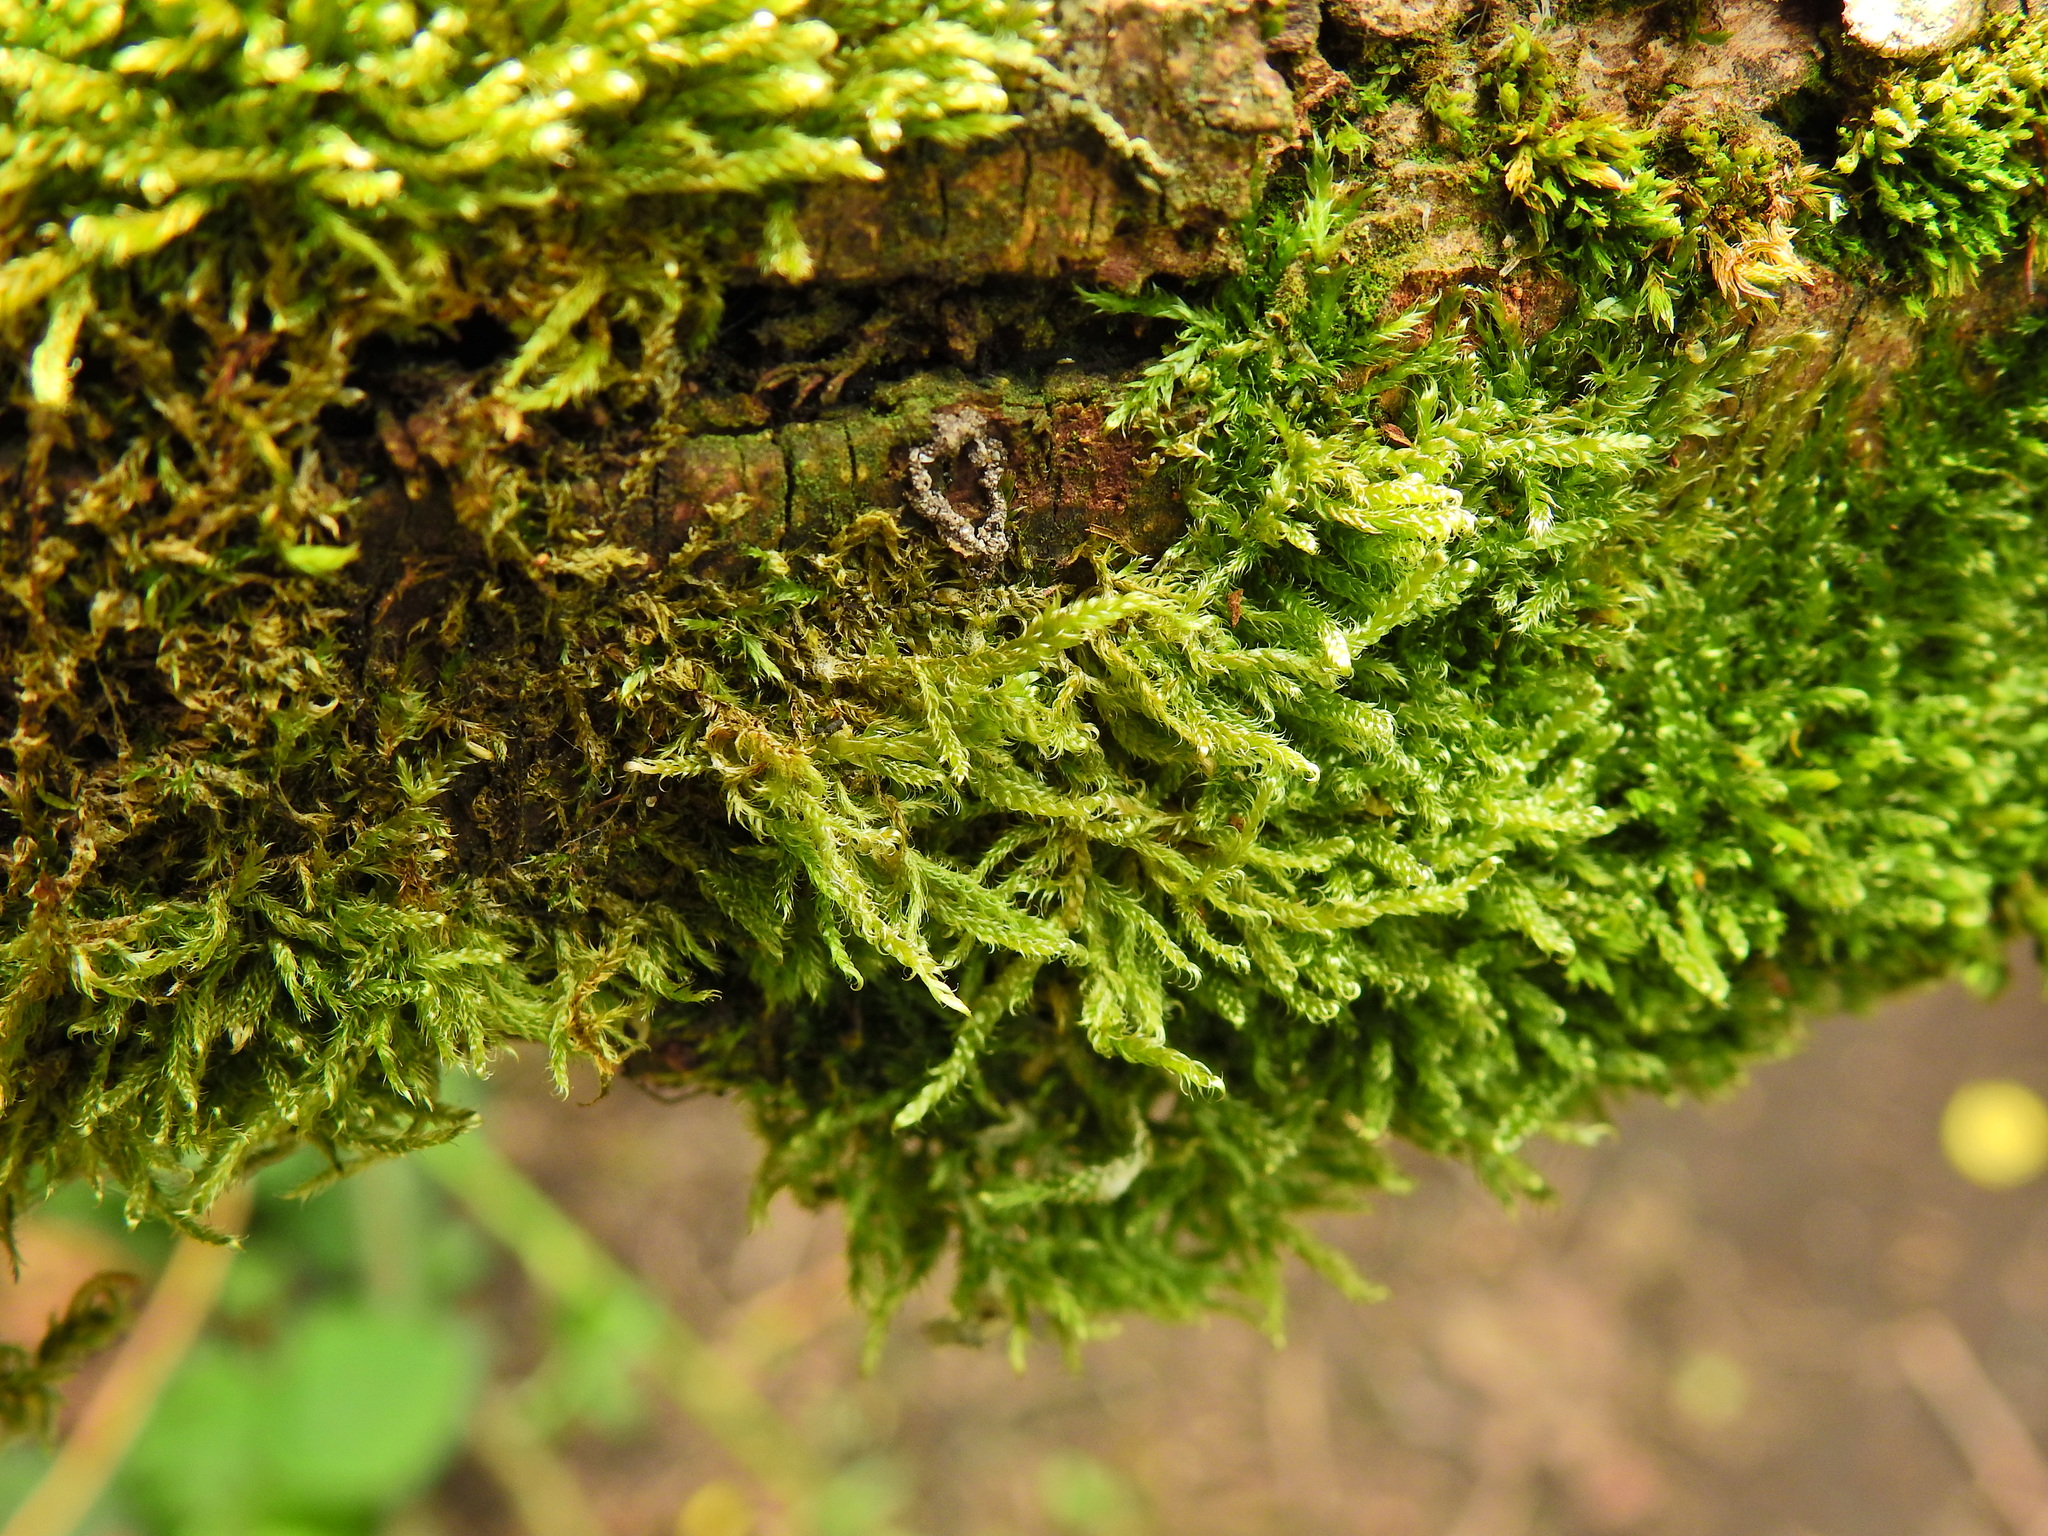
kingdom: Plantae
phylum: Bryophyta
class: Bryopsida
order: Hypnales
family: Hypnaceae
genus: Hypnum
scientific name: Hypnum cupressiforme
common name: Cypress-leaved plait-moss
